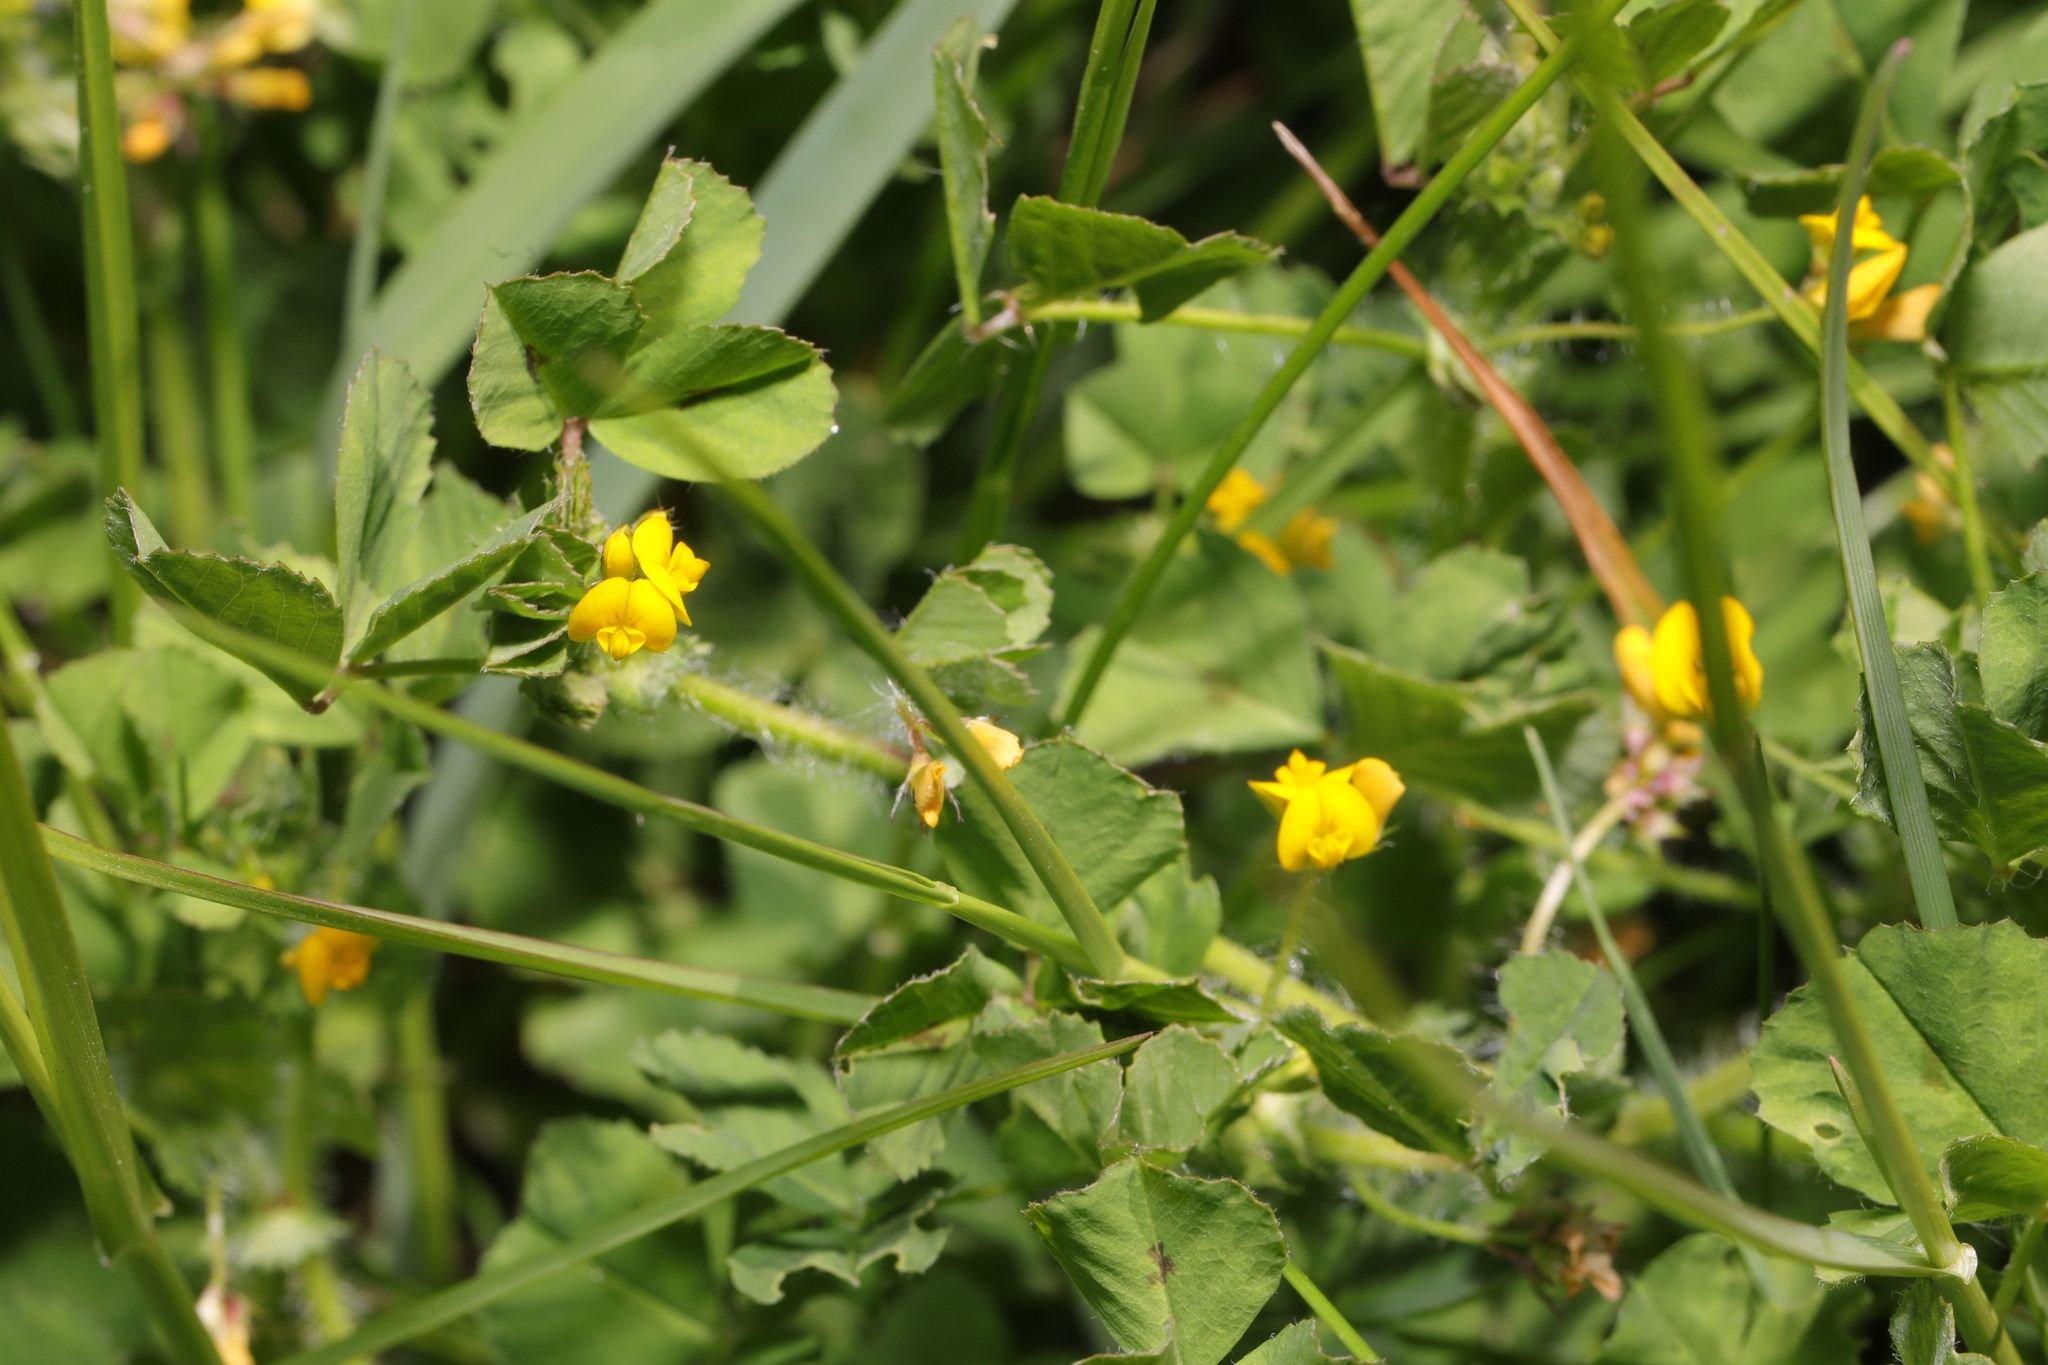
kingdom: Plantae
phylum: Tracheophyta
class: Magnoliopsida
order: Fabales
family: Fabaceae
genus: Medicago
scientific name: Medicago arabica
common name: Spotted medick
